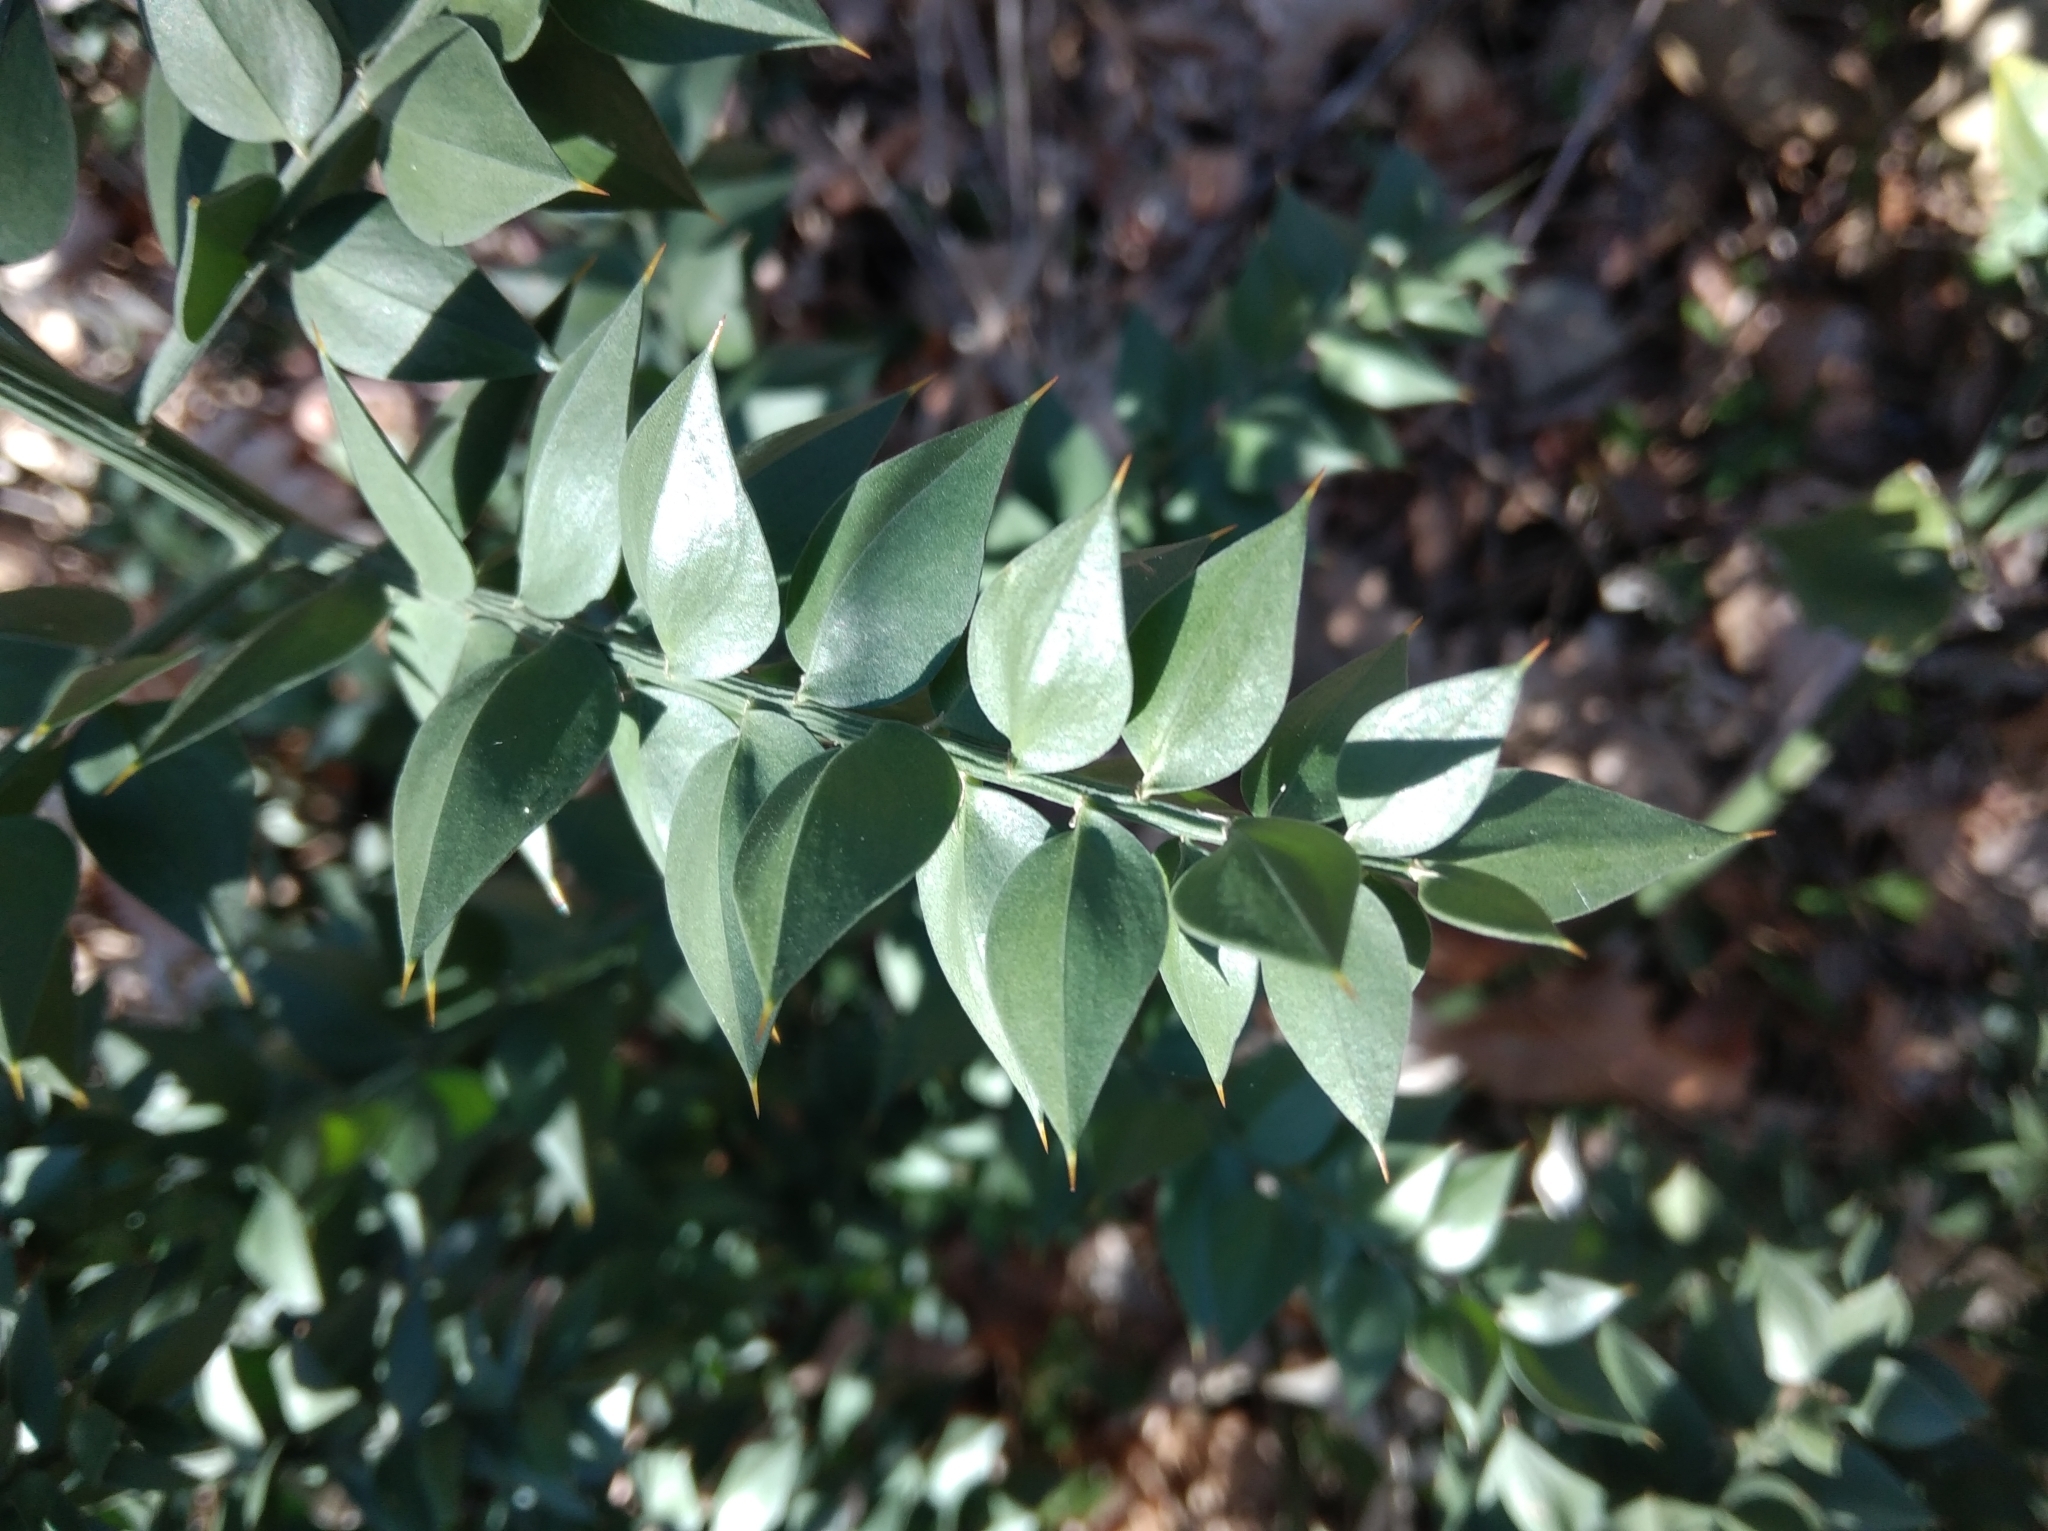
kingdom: Plantae
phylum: Tracheophyta
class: Liliopsida
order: Asparagales
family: Asparagaceae
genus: Ruscus
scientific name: Ruscus aculeatus
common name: Butcher's-broom
